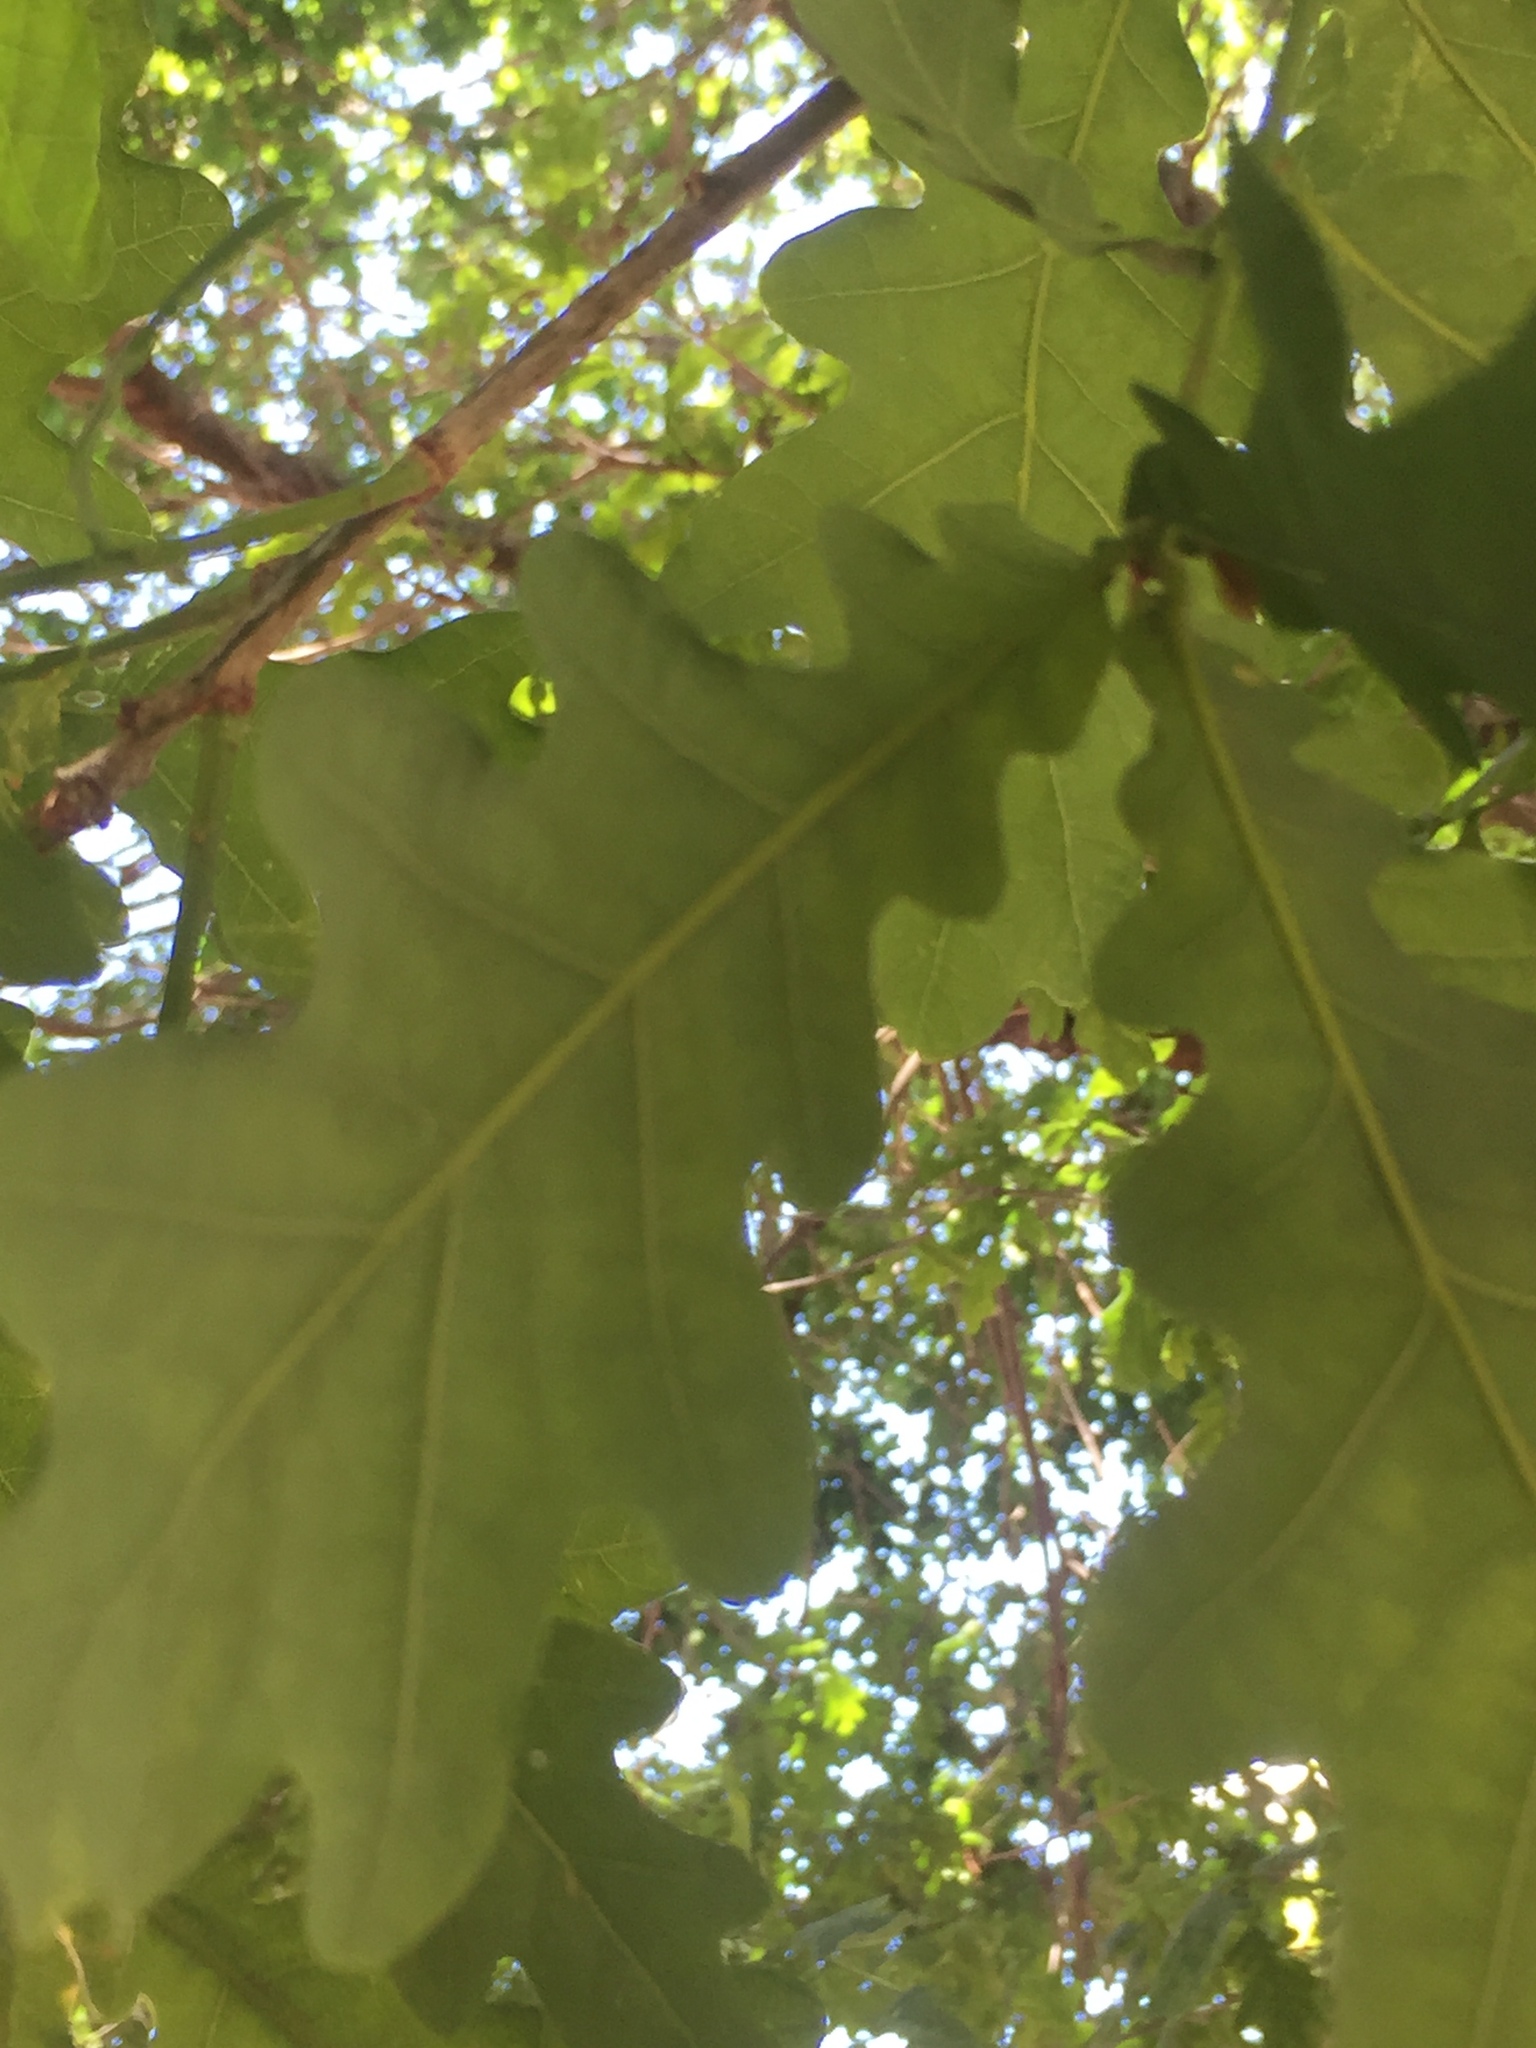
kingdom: Plantae
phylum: Tracheophyta
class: Magnoliopsida
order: Fagales
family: Fagaceae
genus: Quercus
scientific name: Quercus robur
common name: Pedunculate oak
